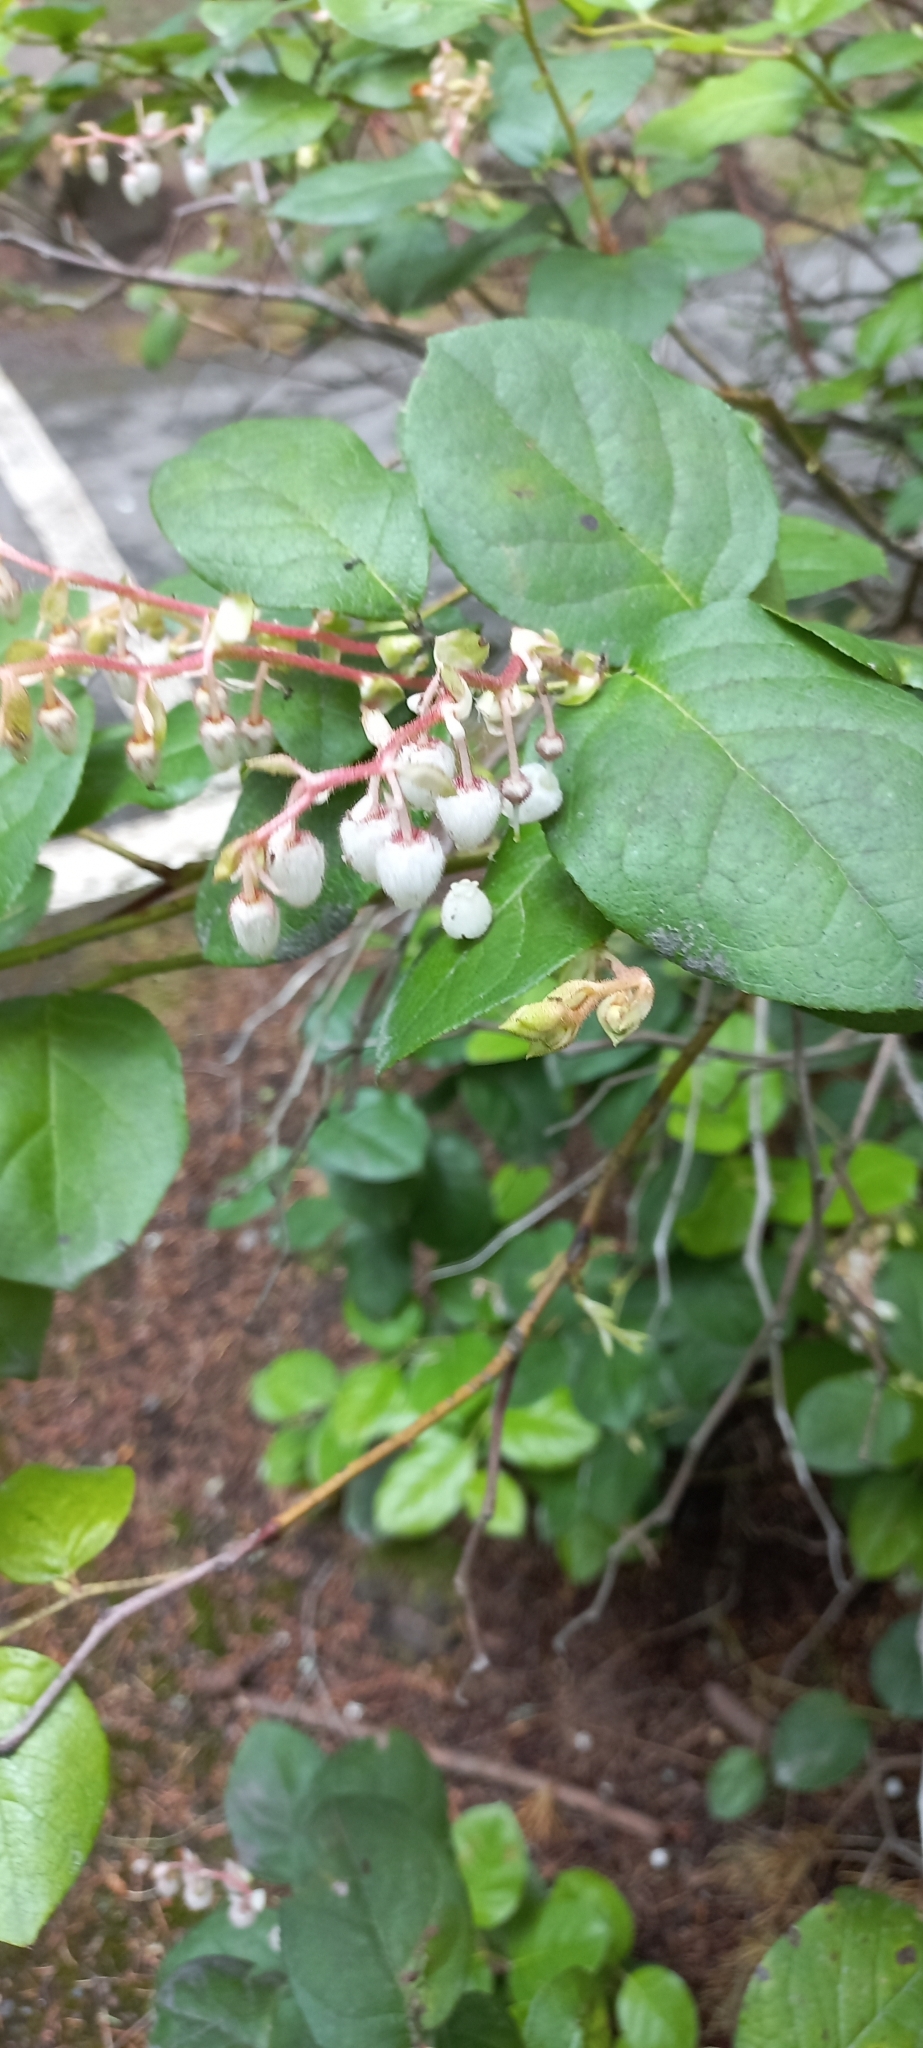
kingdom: Plantae
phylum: Tracheophyta
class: Magnoliopsida
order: Ericales
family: Ericaceae
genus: Gaultheria
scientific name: Gaultheria shallon
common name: Shallon
